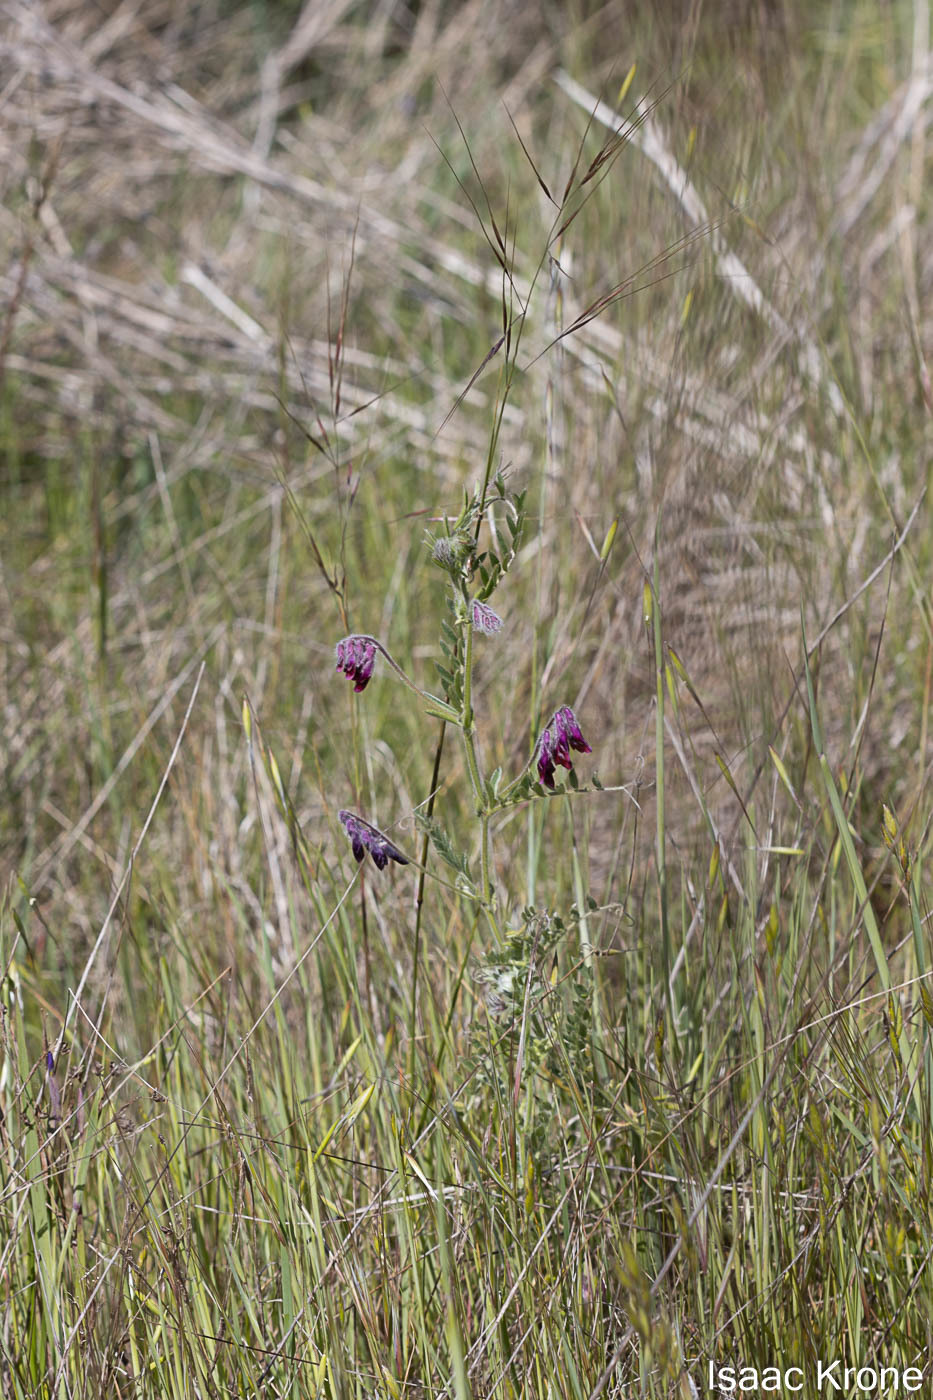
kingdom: Plantae
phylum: Tracheophyta
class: Magnoliopsida
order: Fabales
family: Fabaceae
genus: Vicia
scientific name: Vicia benghalensis
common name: Purple vetch
